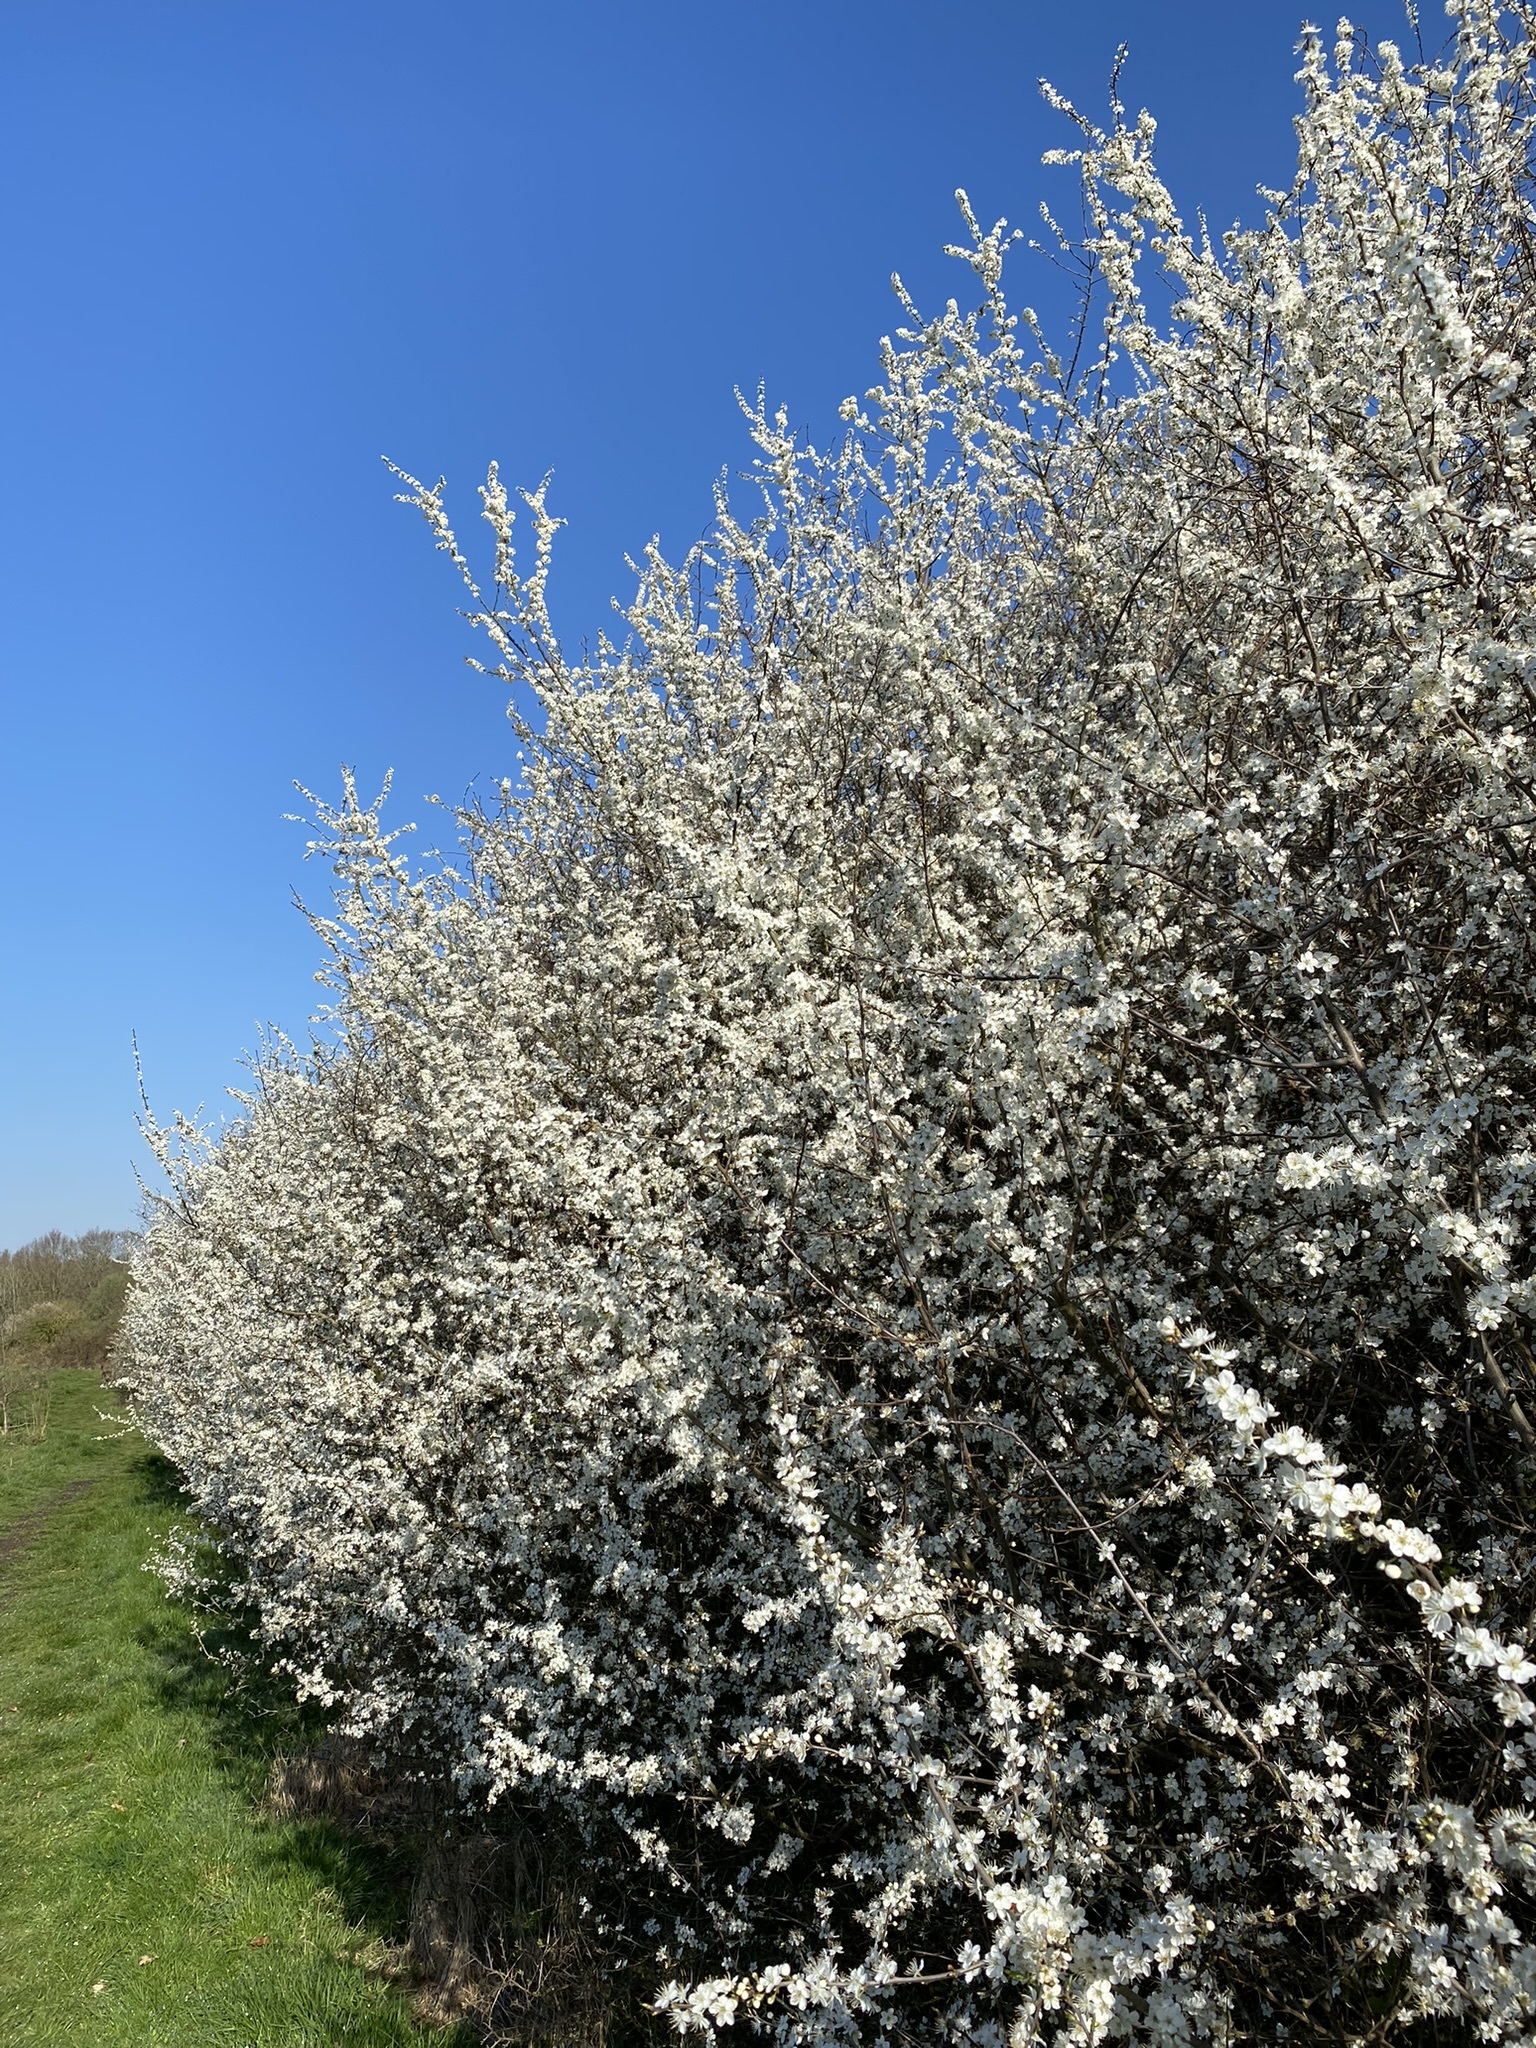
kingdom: Plantae
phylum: Tracheophyta
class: Magnoliopsida
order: Rosales
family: Rosaceae
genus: Prunus
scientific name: Prunus spinosa
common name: Blackthorn
